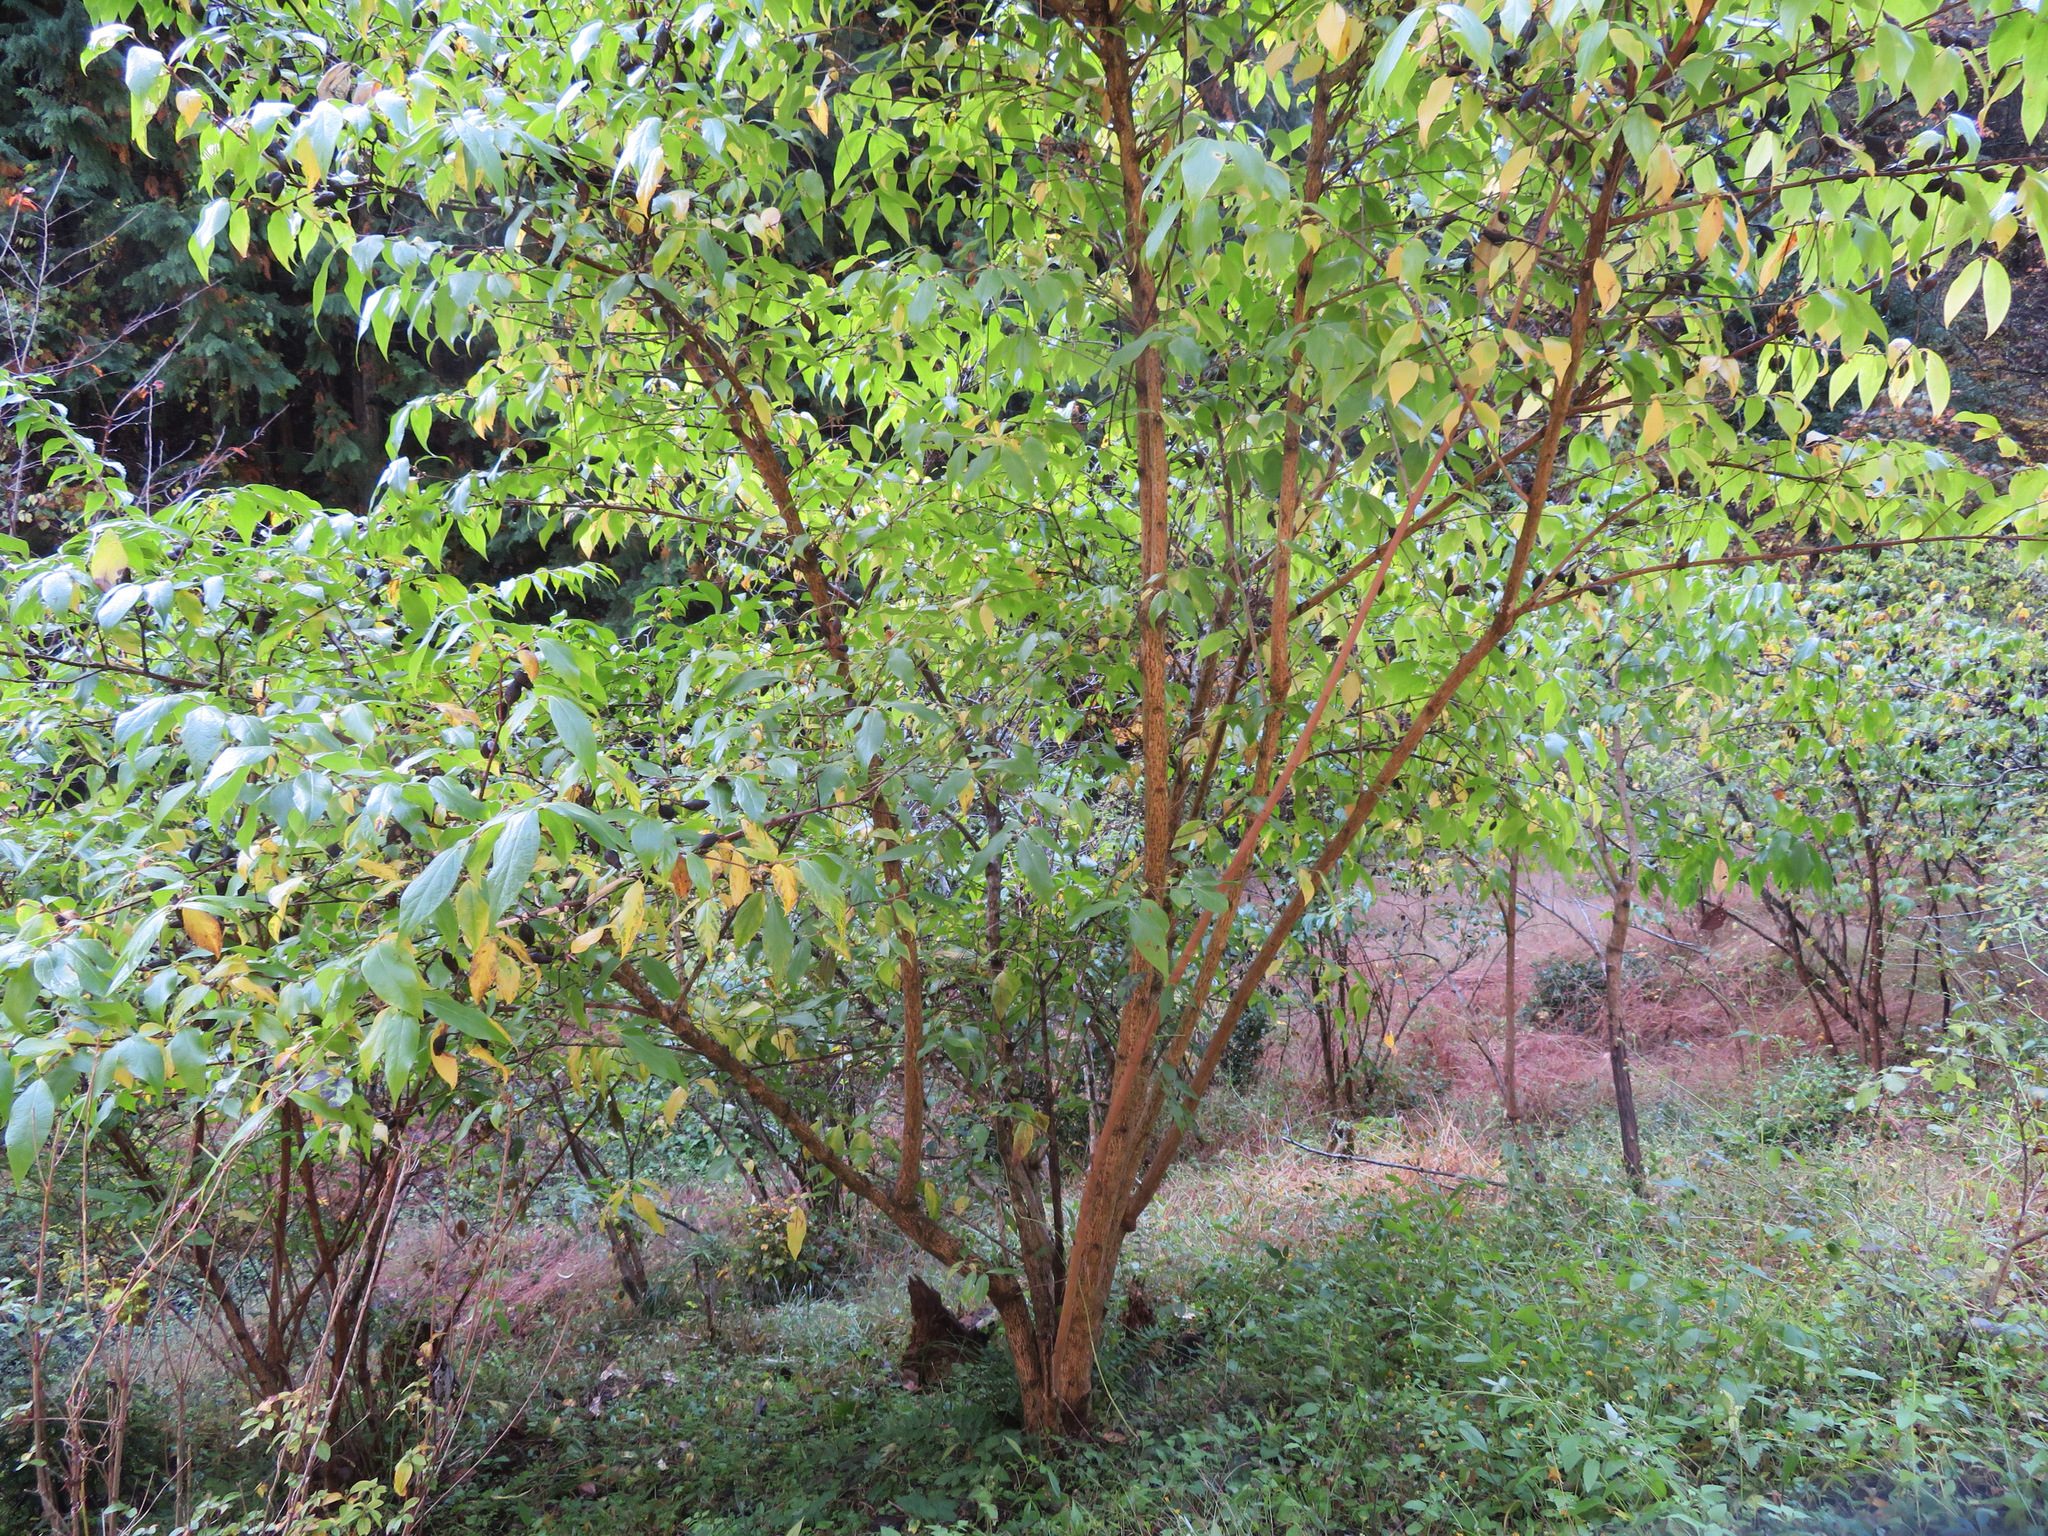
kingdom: Plantae
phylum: Tracheophyta
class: Magnoliopsida
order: Laurales
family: Calycanthaceae
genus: Chimonanthus
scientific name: Chimonanthus praecox
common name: Wintersweet
